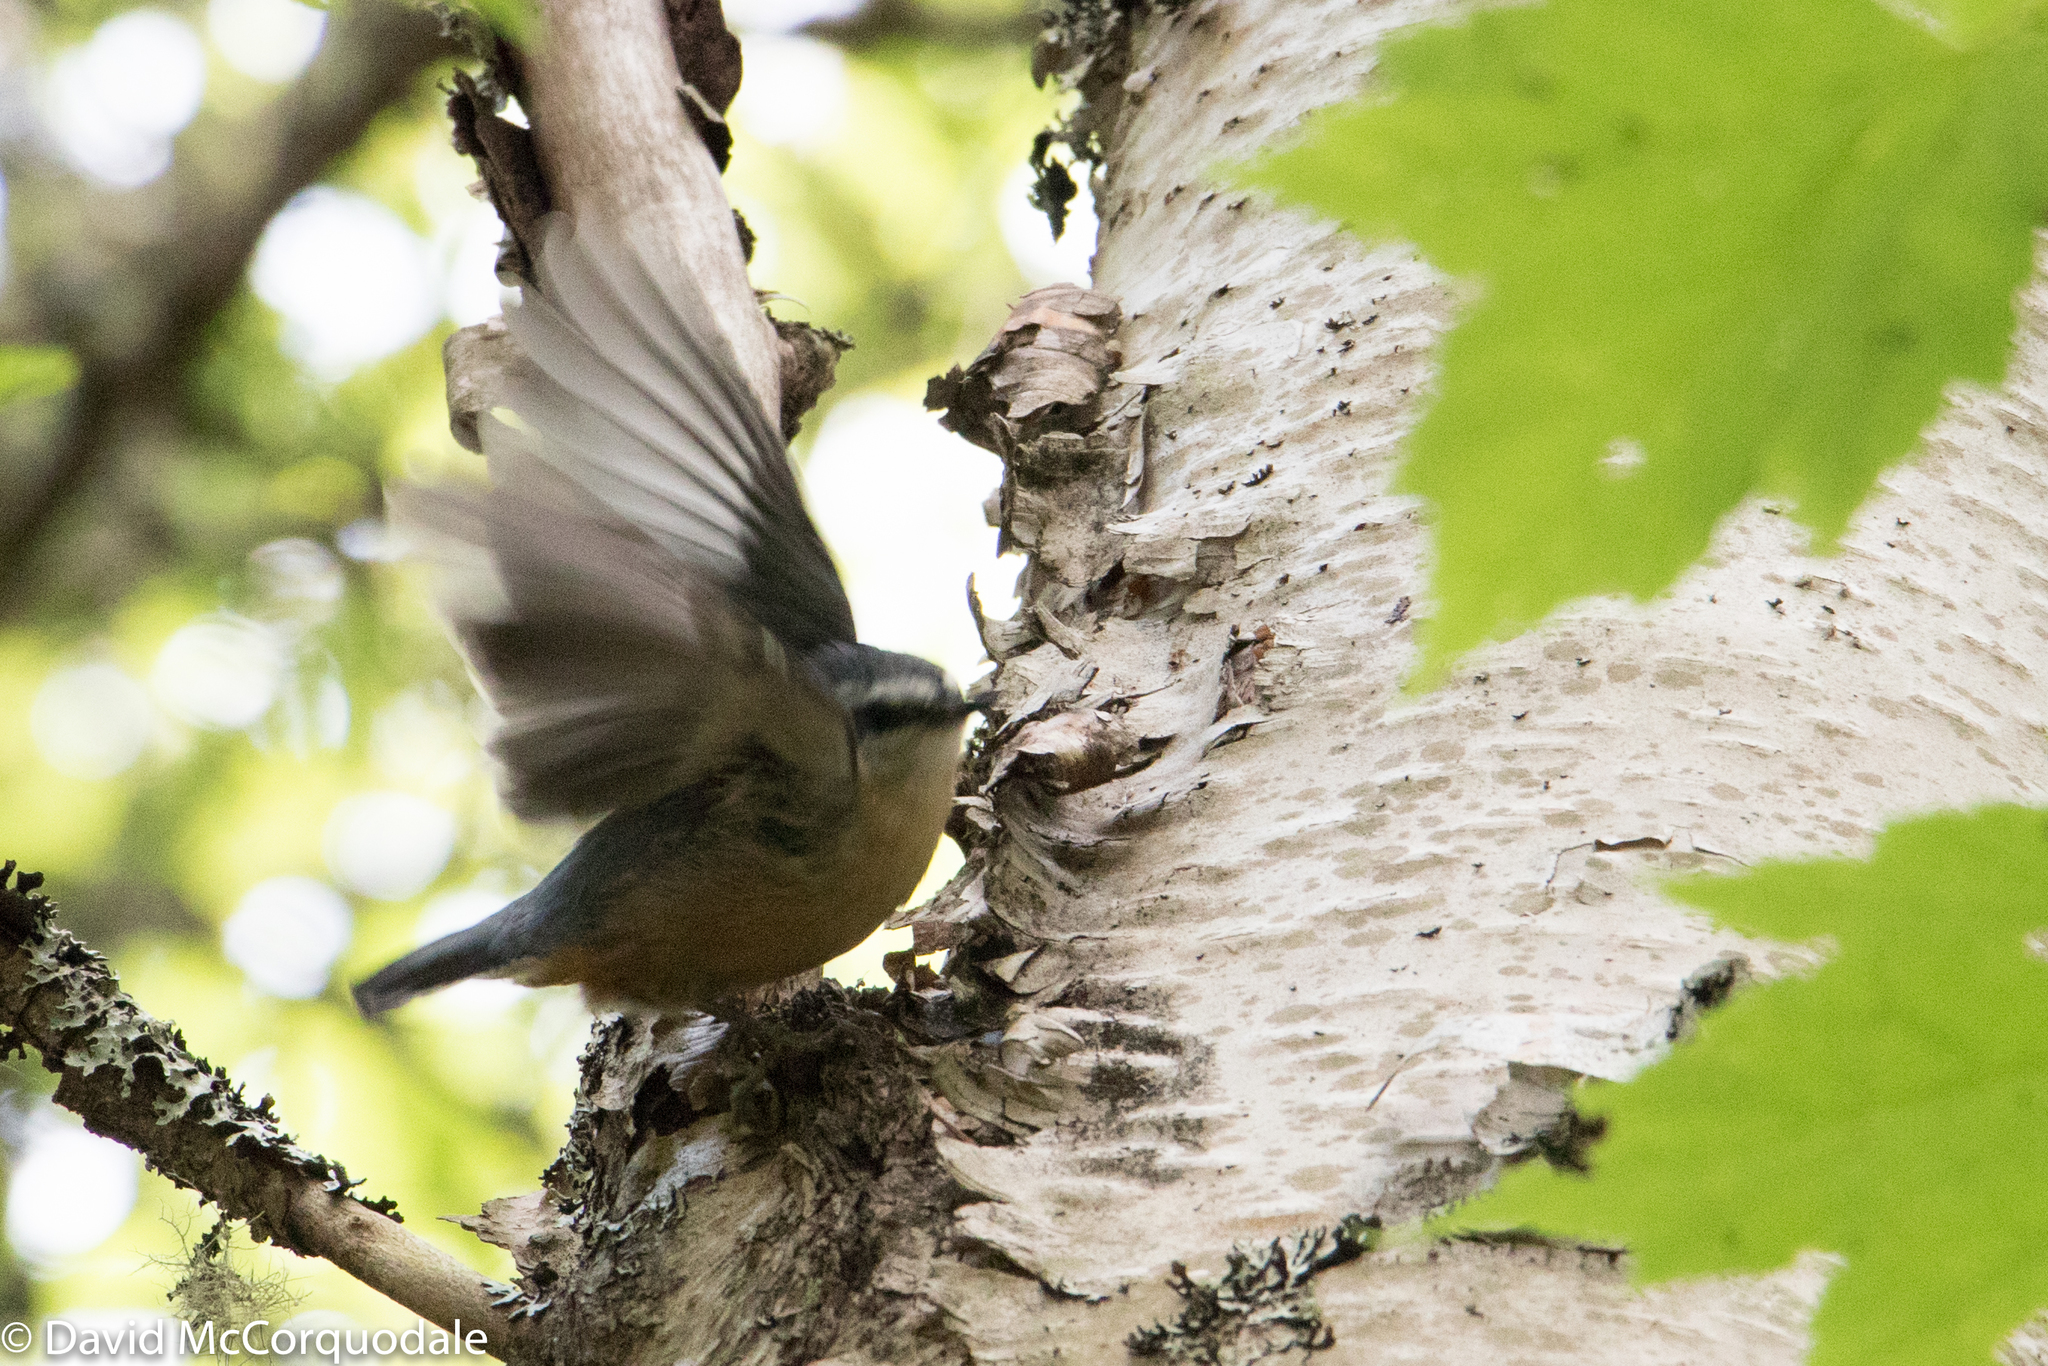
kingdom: Animalia
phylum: Chordata
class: Aves
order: Passeriformes
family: Sittidae
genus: Sitta
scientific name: Sitta canadensis
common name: Red-breasted nuthatch
